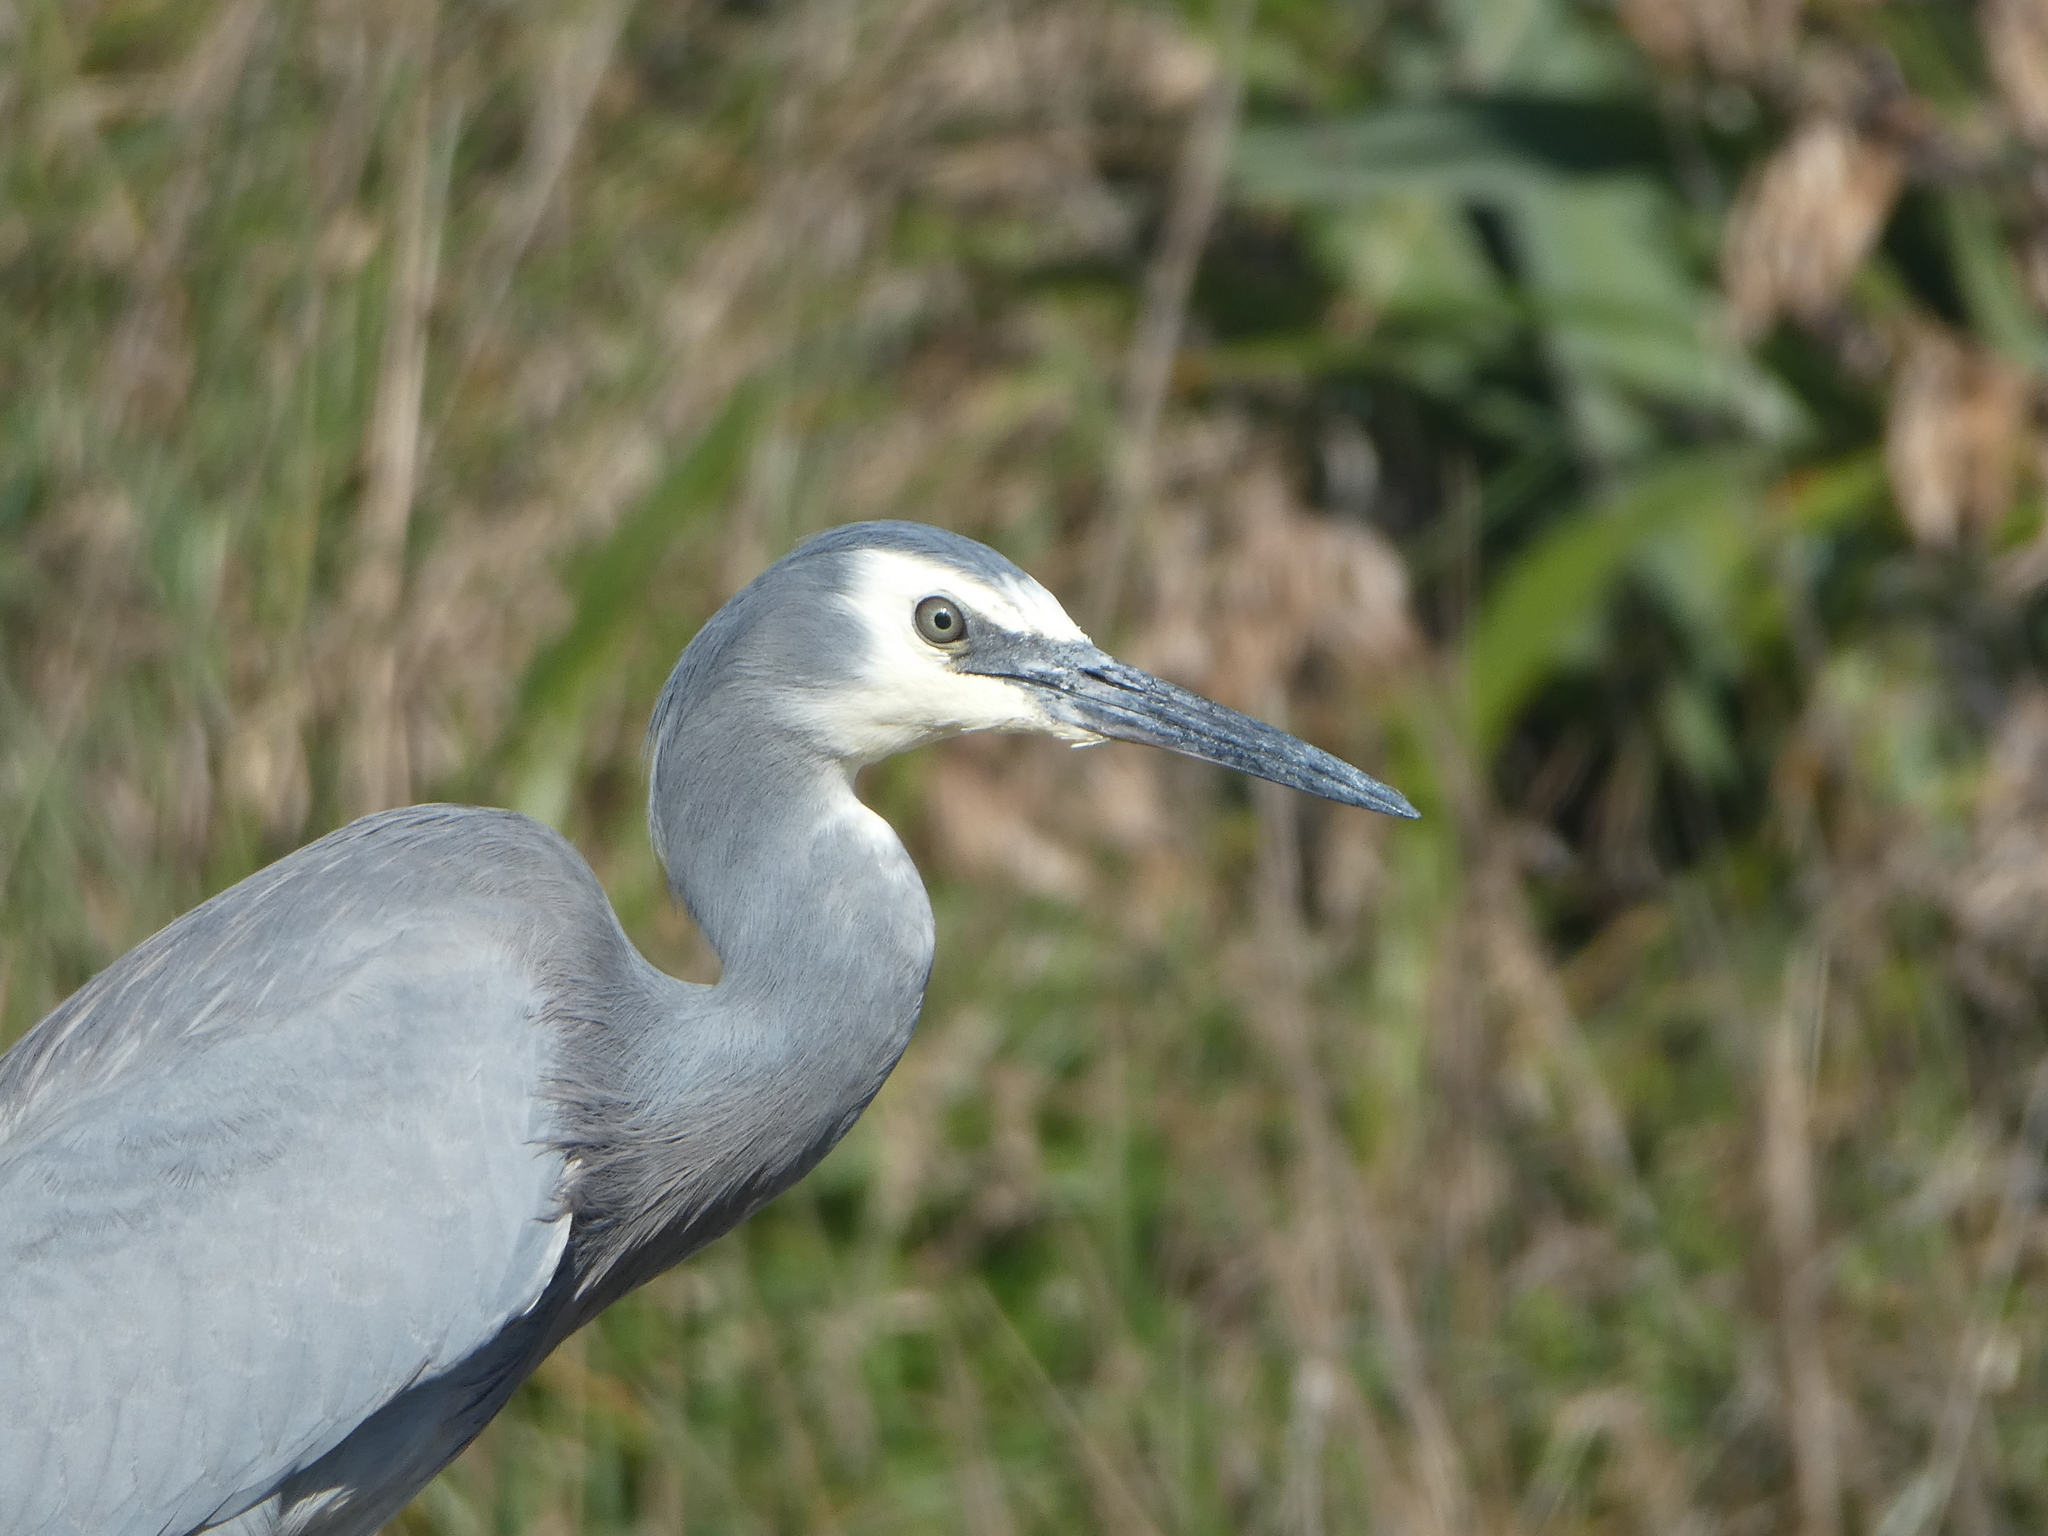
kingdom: Animalia
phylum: Chordata
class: Aves
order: Pelecaniformes
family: Ardeidae
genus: Egretta
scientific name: Egretta novaehollandiae
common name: White-faced heron
